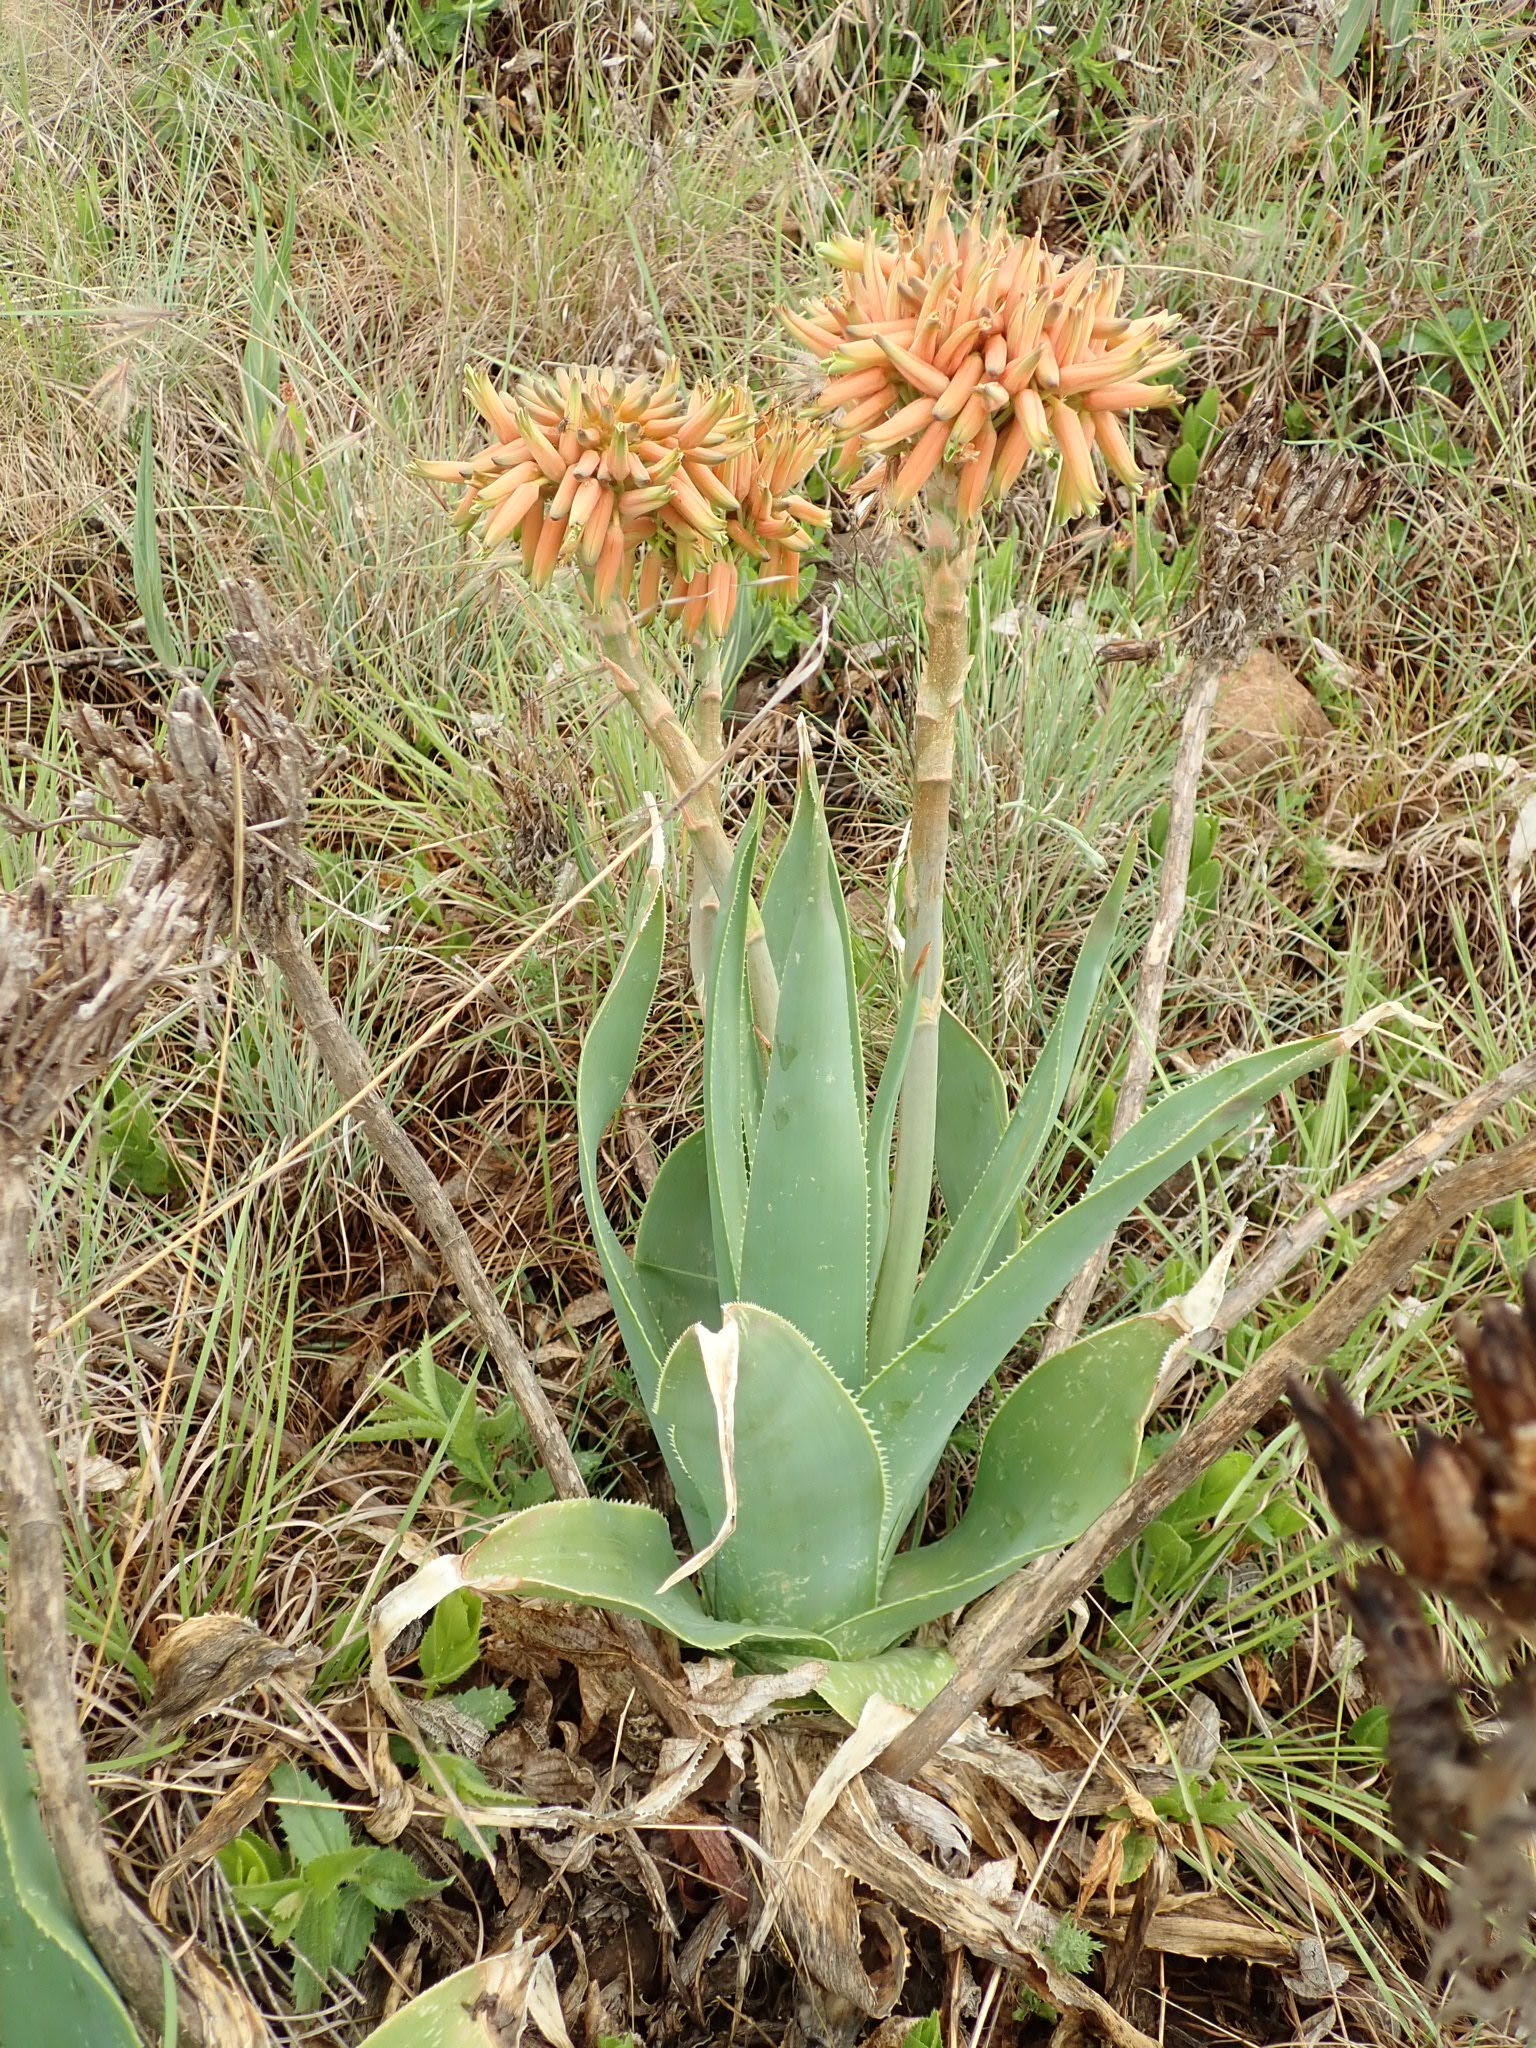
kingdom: Plantae
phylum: Tracheophyta
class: Liliopsida
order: Asparagales
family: Asphodelaceae
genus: Aloe
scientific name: Aloe ecklonis
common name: Ecklon's aloe
